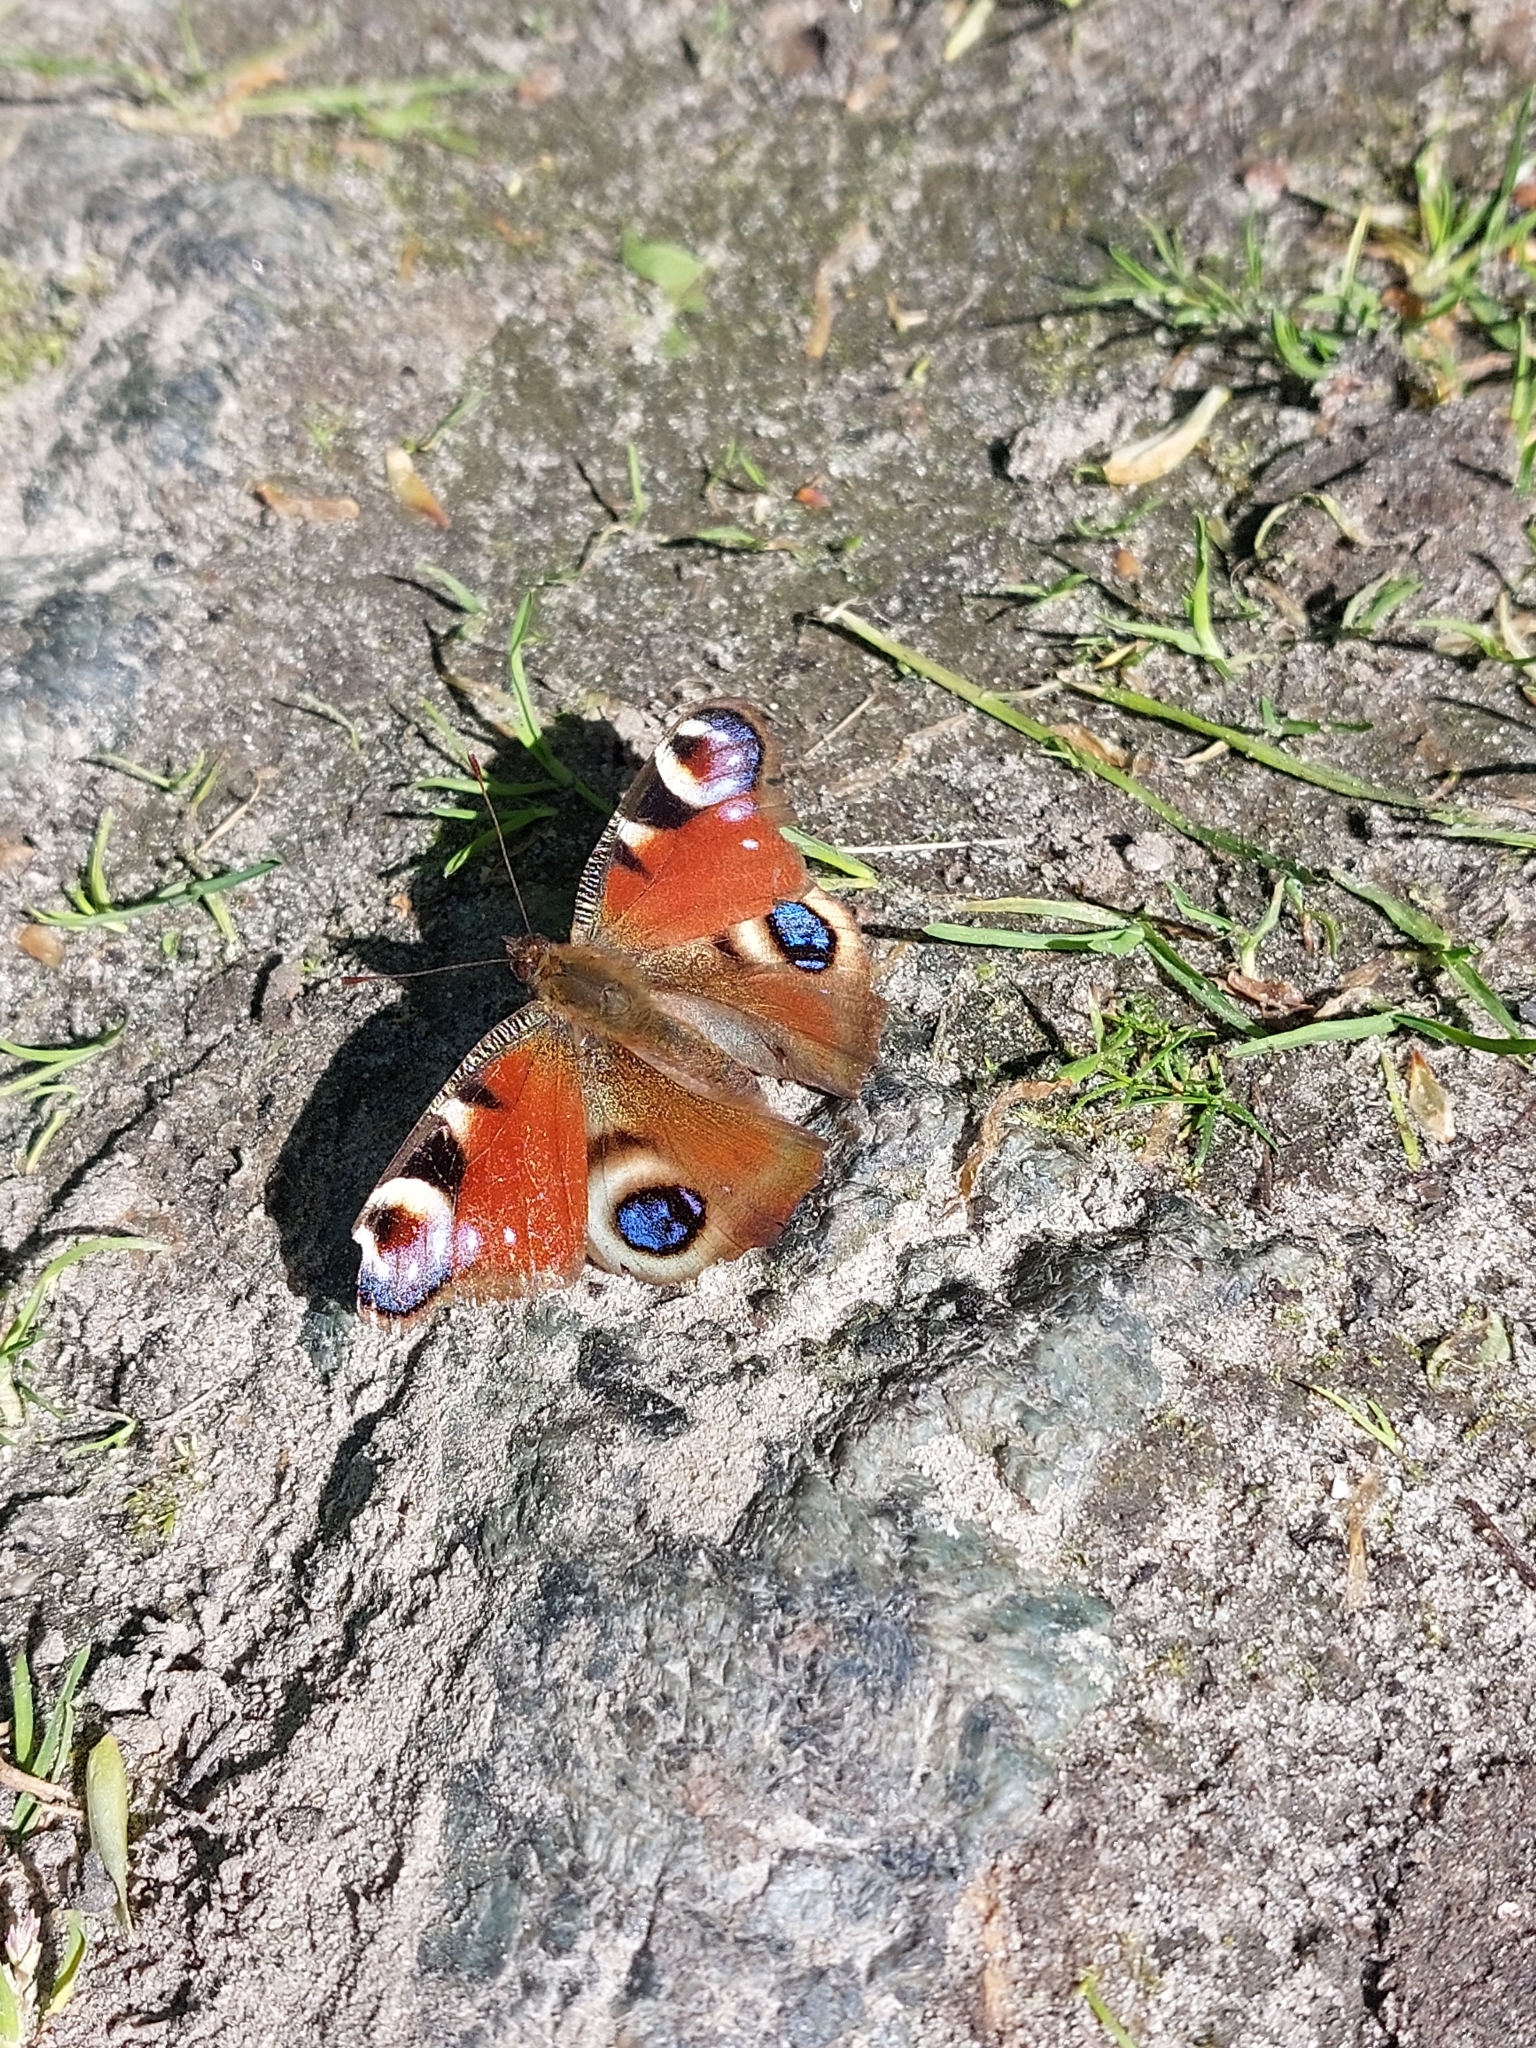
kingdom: Animalia
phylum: Arthropoda
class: Insecta
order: Lepidoptera
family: Nymphalidae
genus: Aglais
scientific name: Aglais io
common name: Peacock
